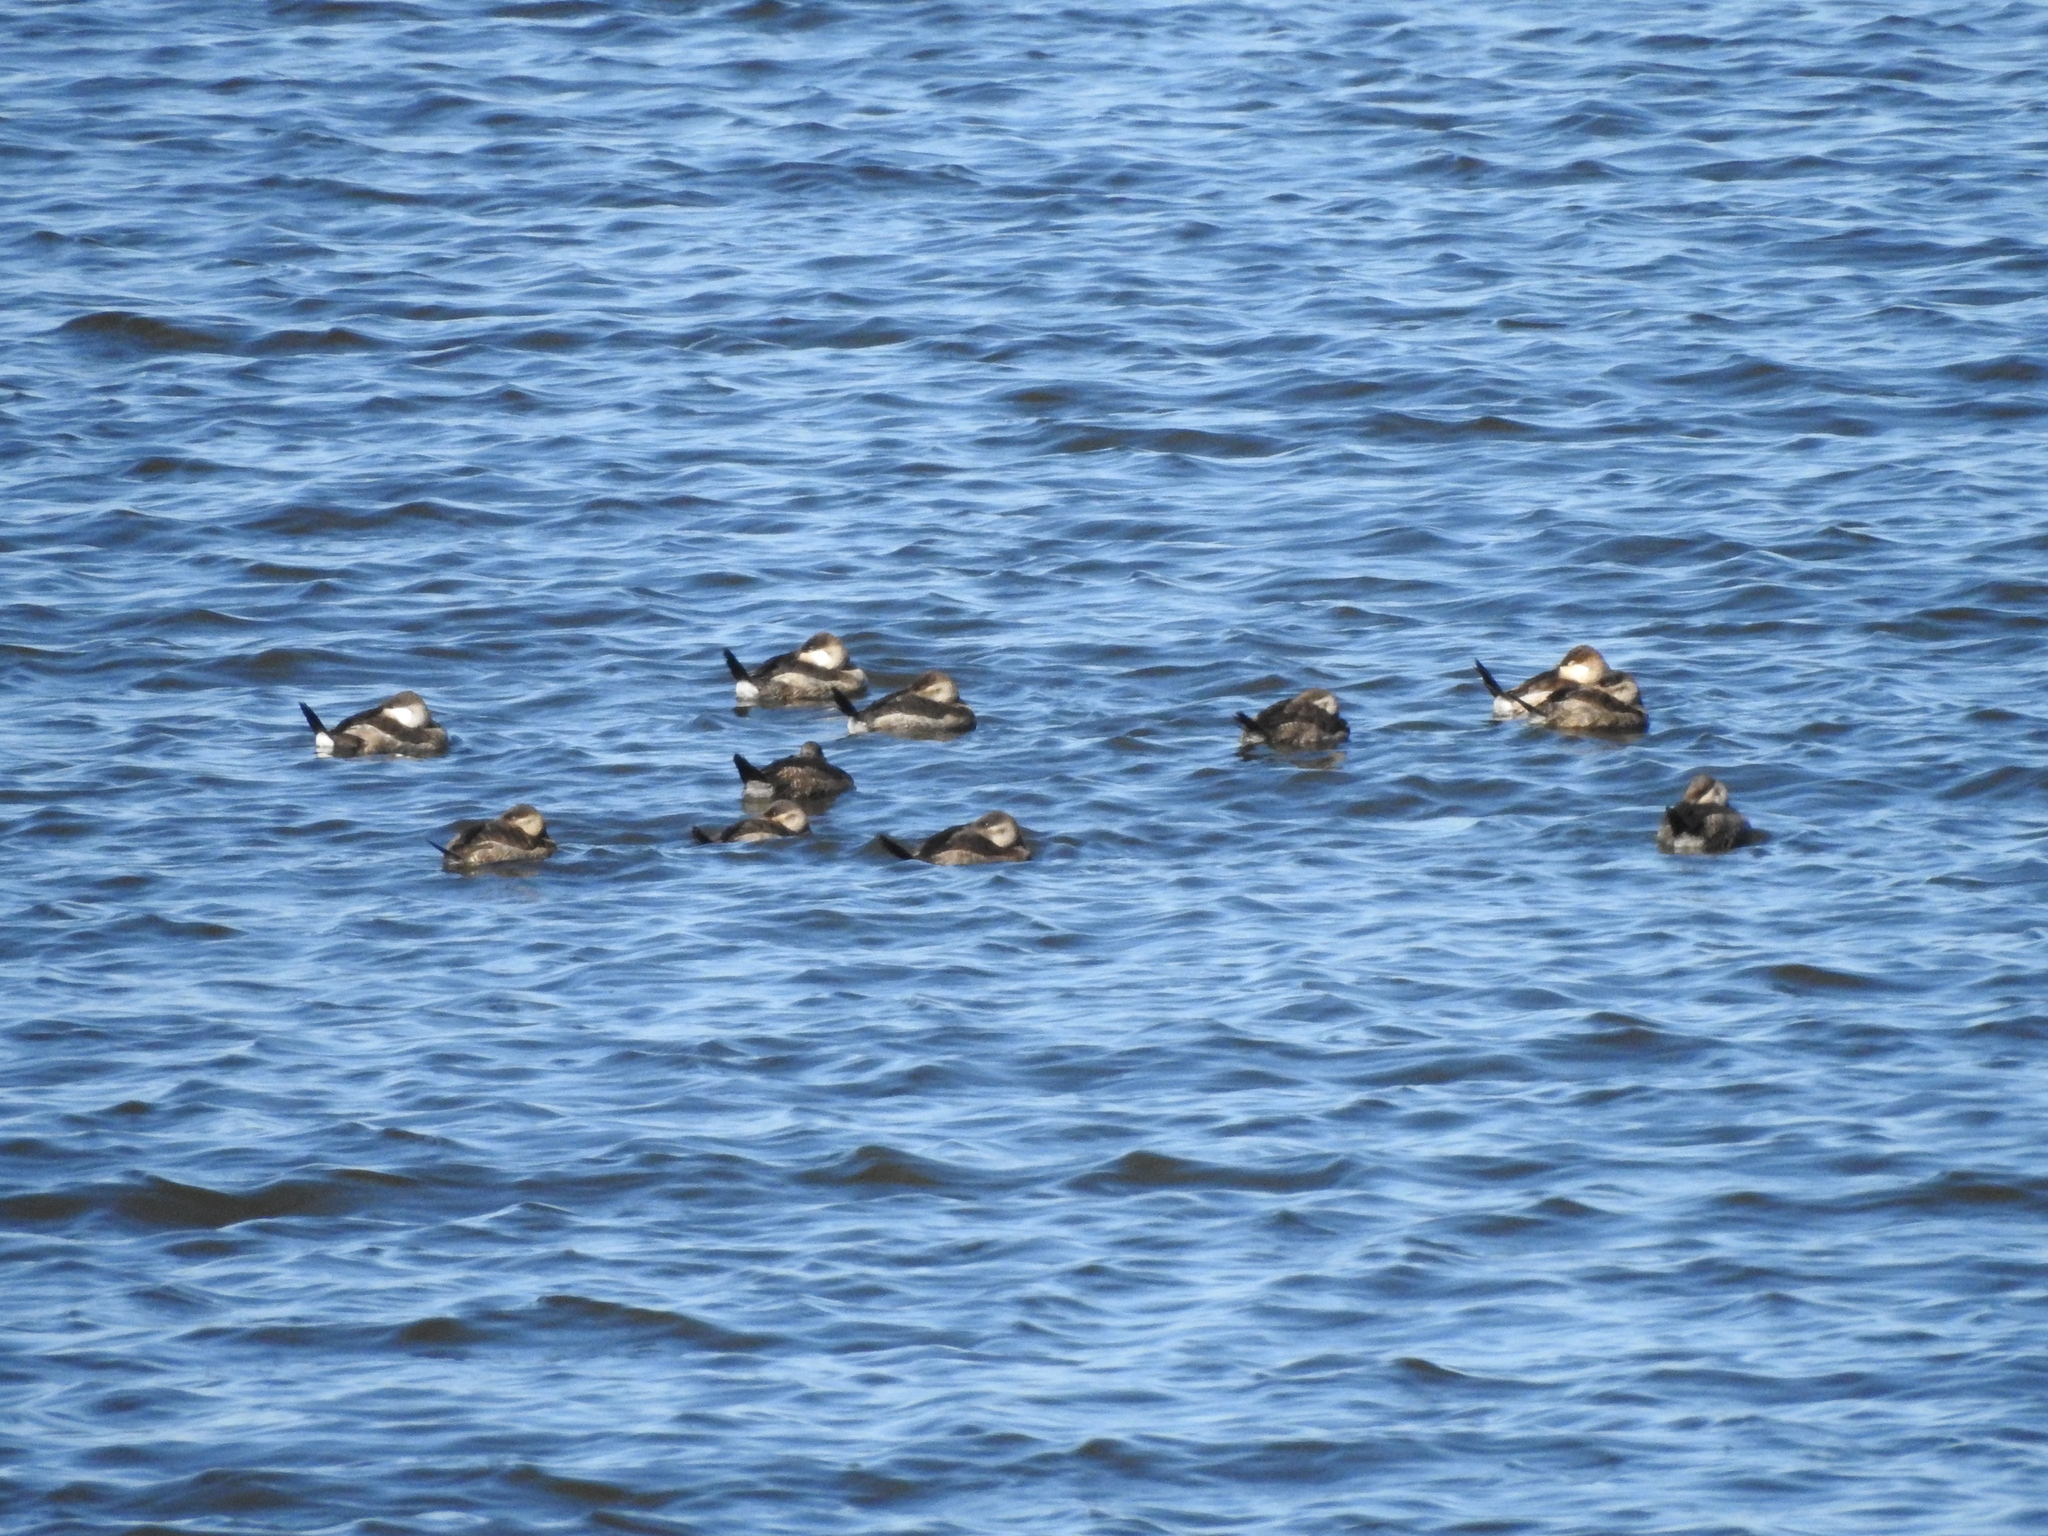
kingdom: Animalia
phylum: Chordata
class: Aves
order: Anseriformes
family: Anatidae
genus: Oxyura
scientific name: Oxyura jamaicensis
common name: Ruddy duck
